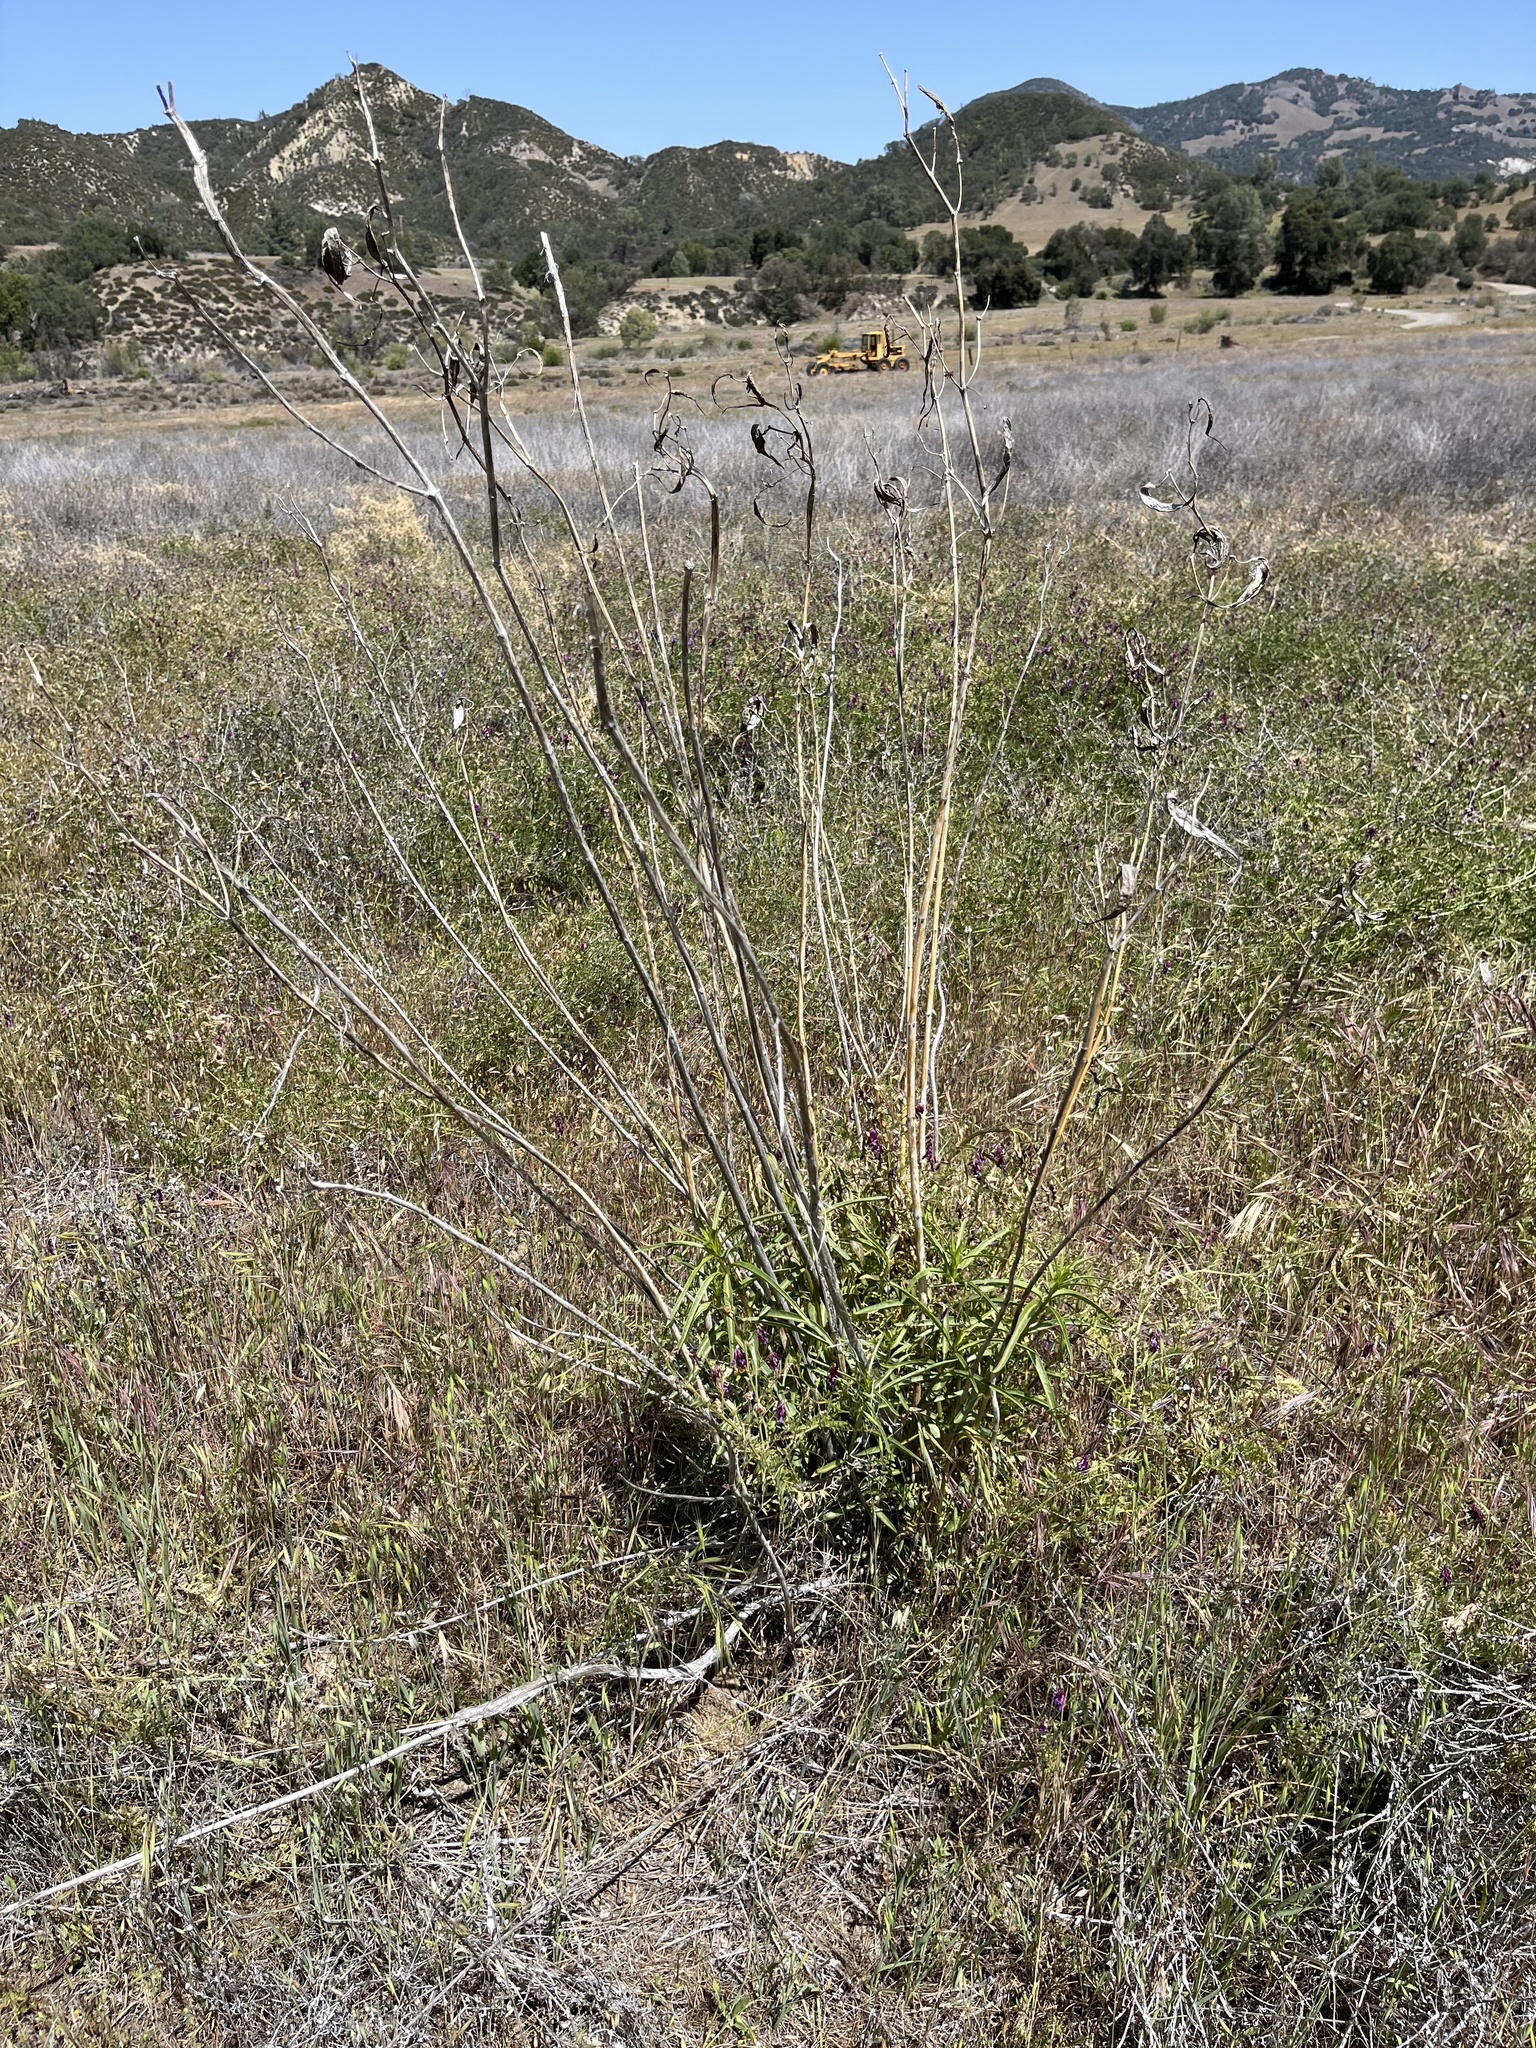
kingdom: Plantae
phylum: Tracheophyta
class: Magnoliopsida
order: Gentianales
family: Apocynaceae
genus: Asclepias
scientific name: Asclepias fascicularis
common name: Mexican milkweed
